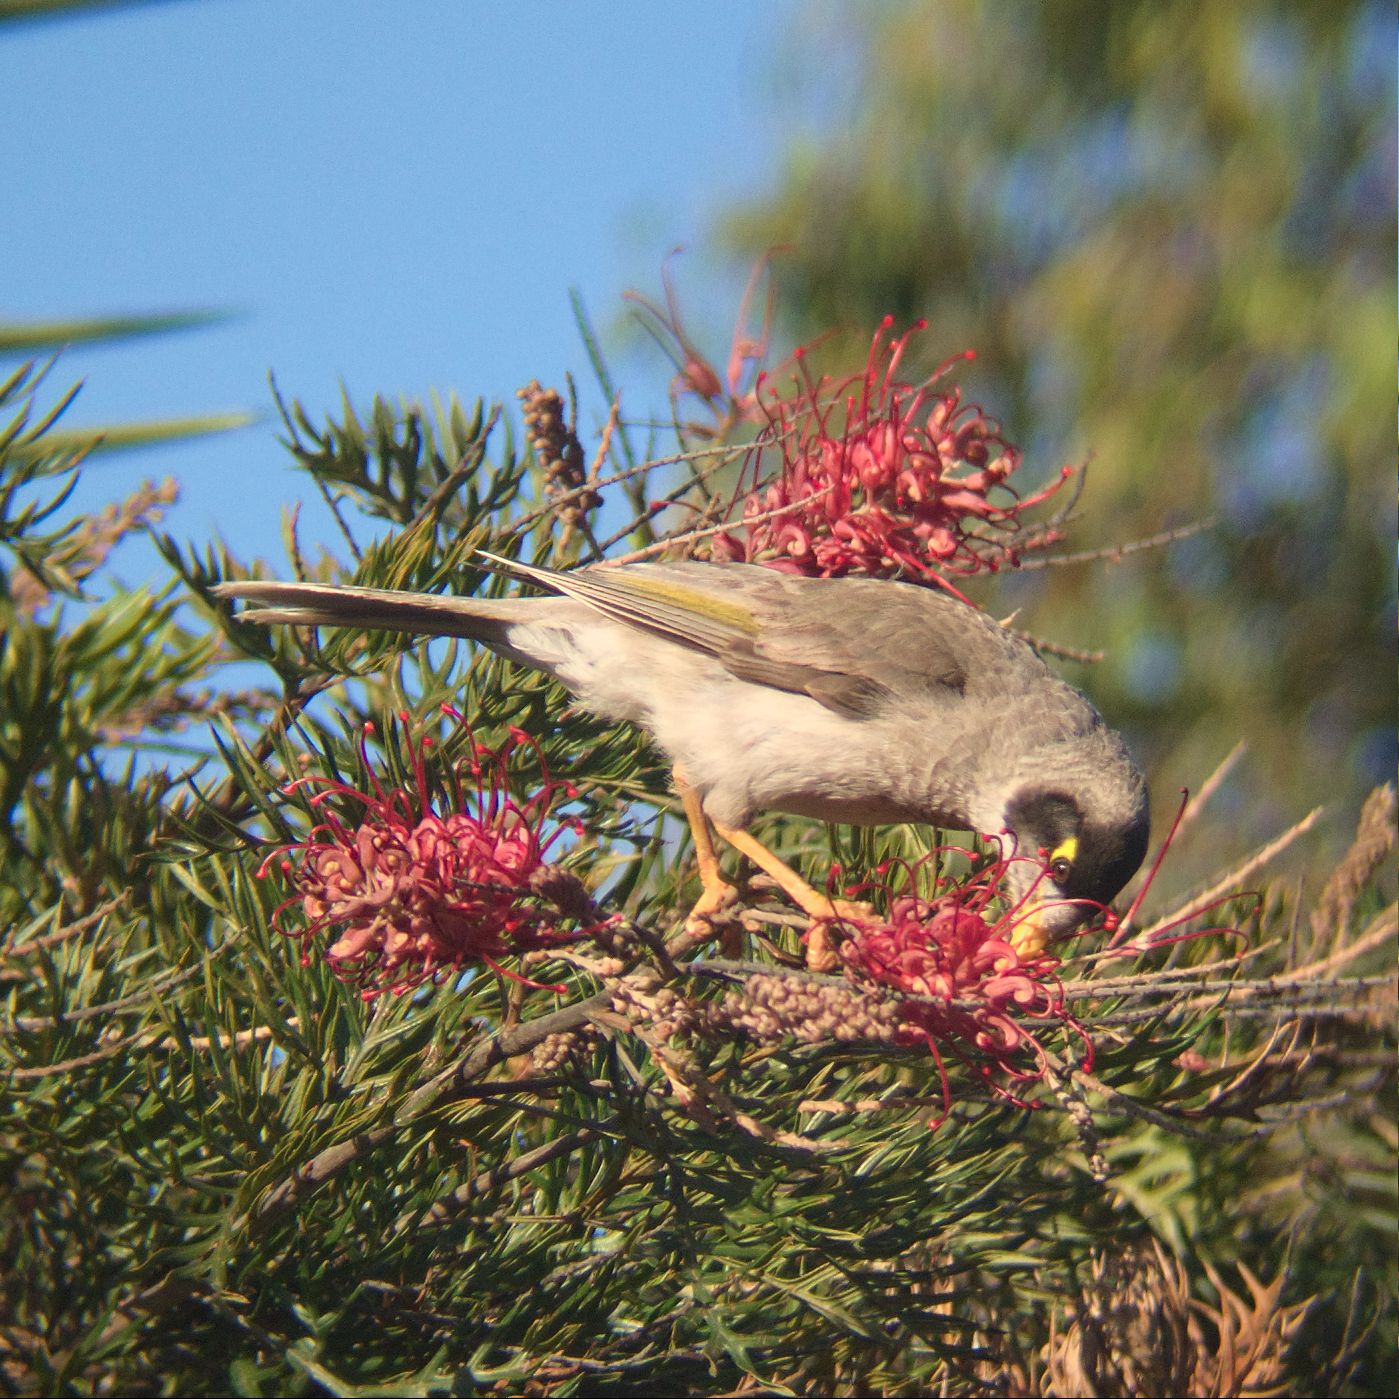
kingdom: Animalia
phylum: Chordata
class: Aves
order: Passeriformes
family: Meliphagidae
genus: Manorina
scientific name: Manorina melanocephala
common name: Noisy miner
